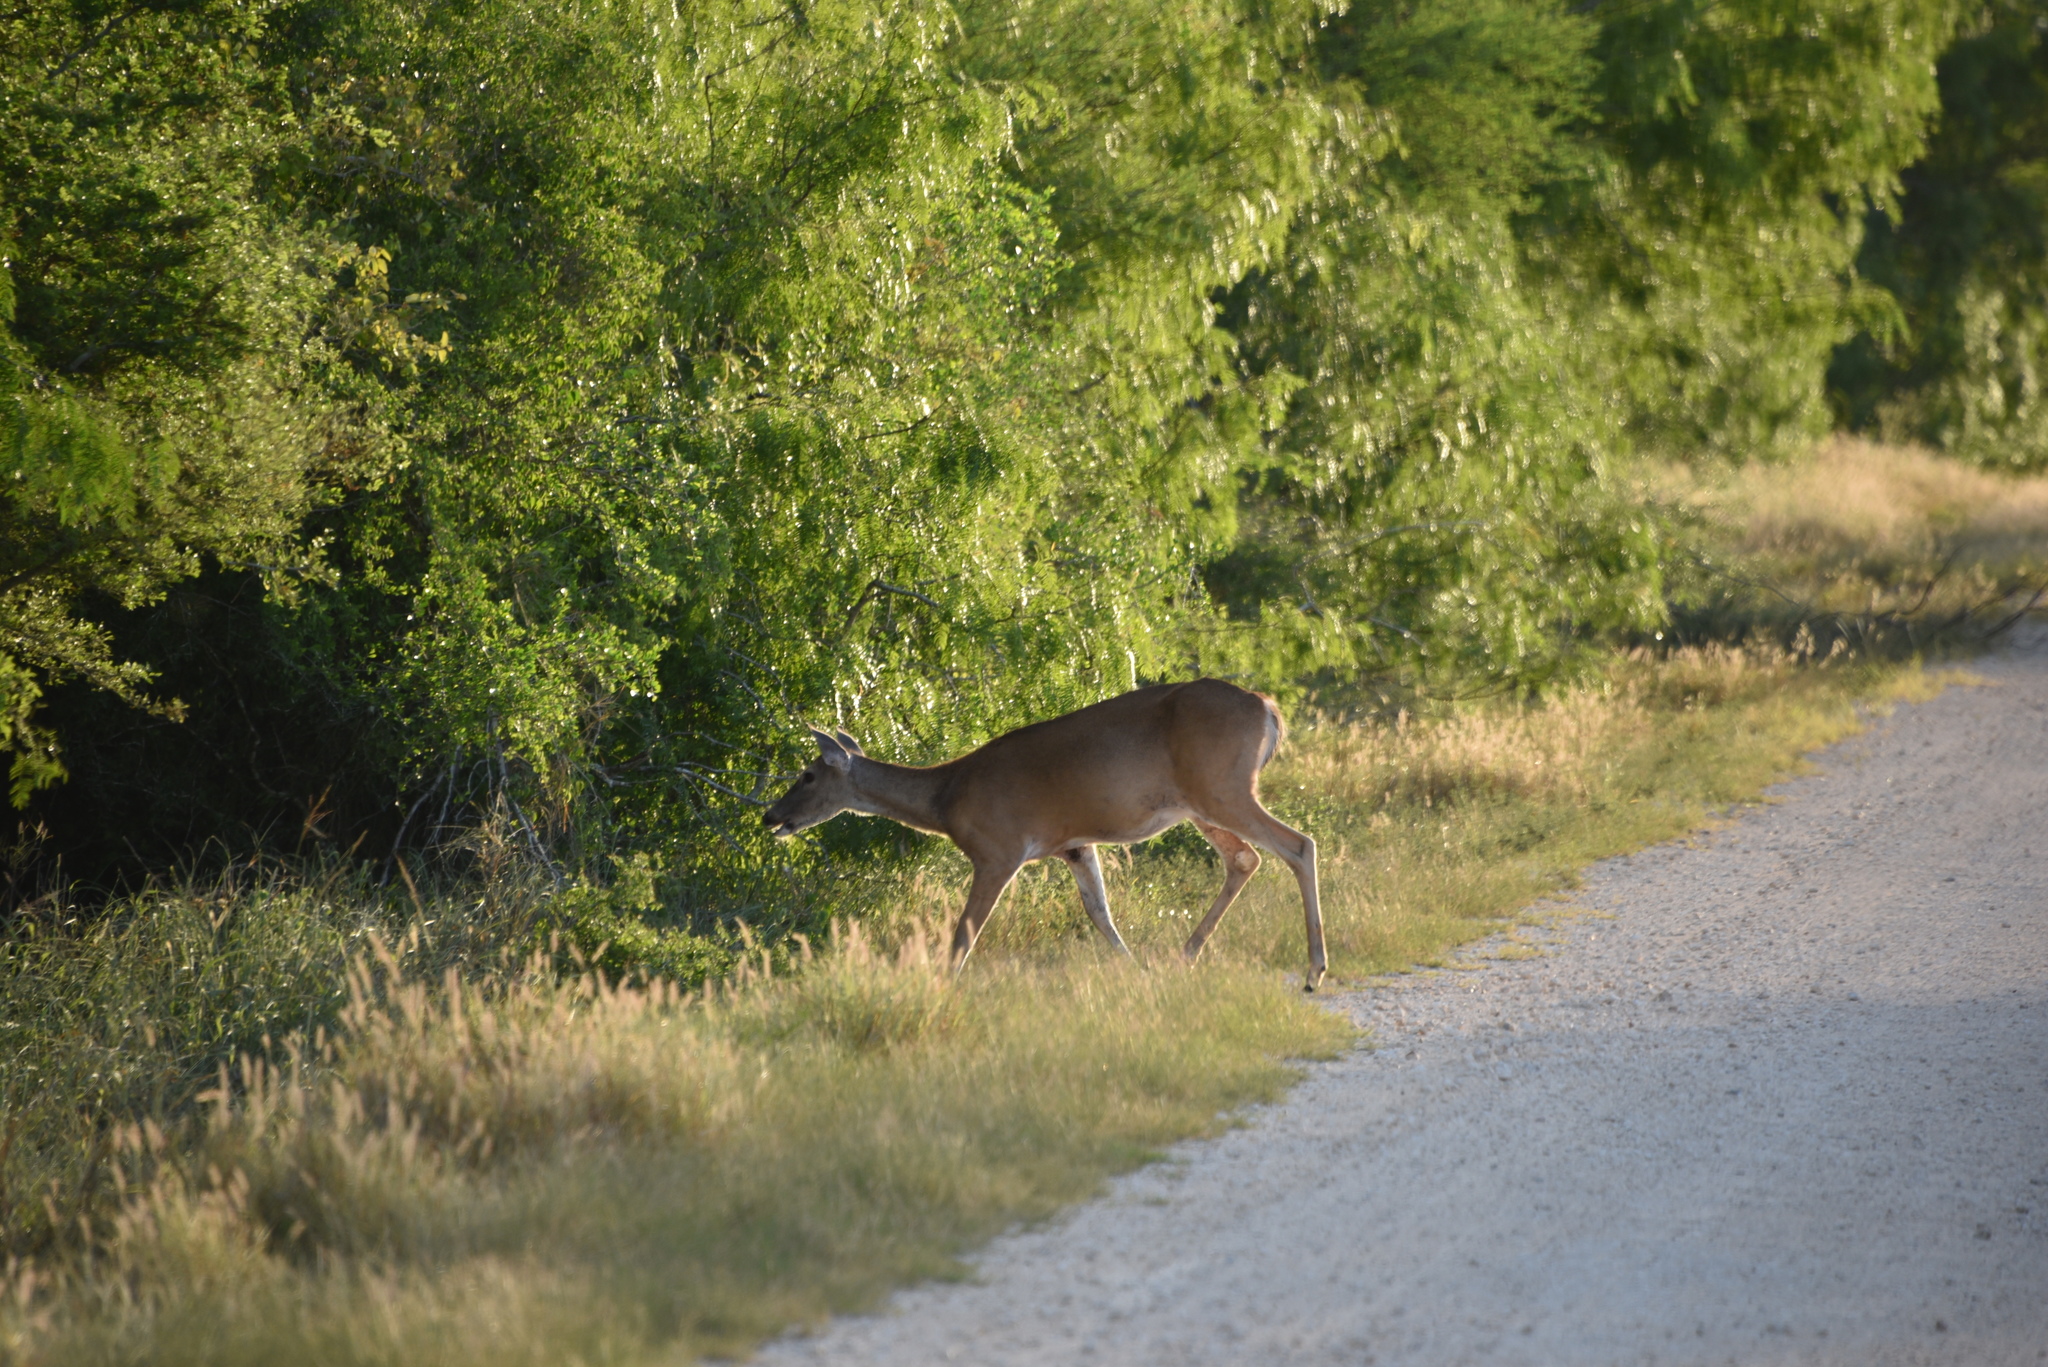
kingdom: Animalia
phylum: Chordata
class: Mammalia
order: Artiodactyla
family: Cervidae
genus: Odocoileus
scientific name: Odocoileus virginianus
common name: White-tailed deer
